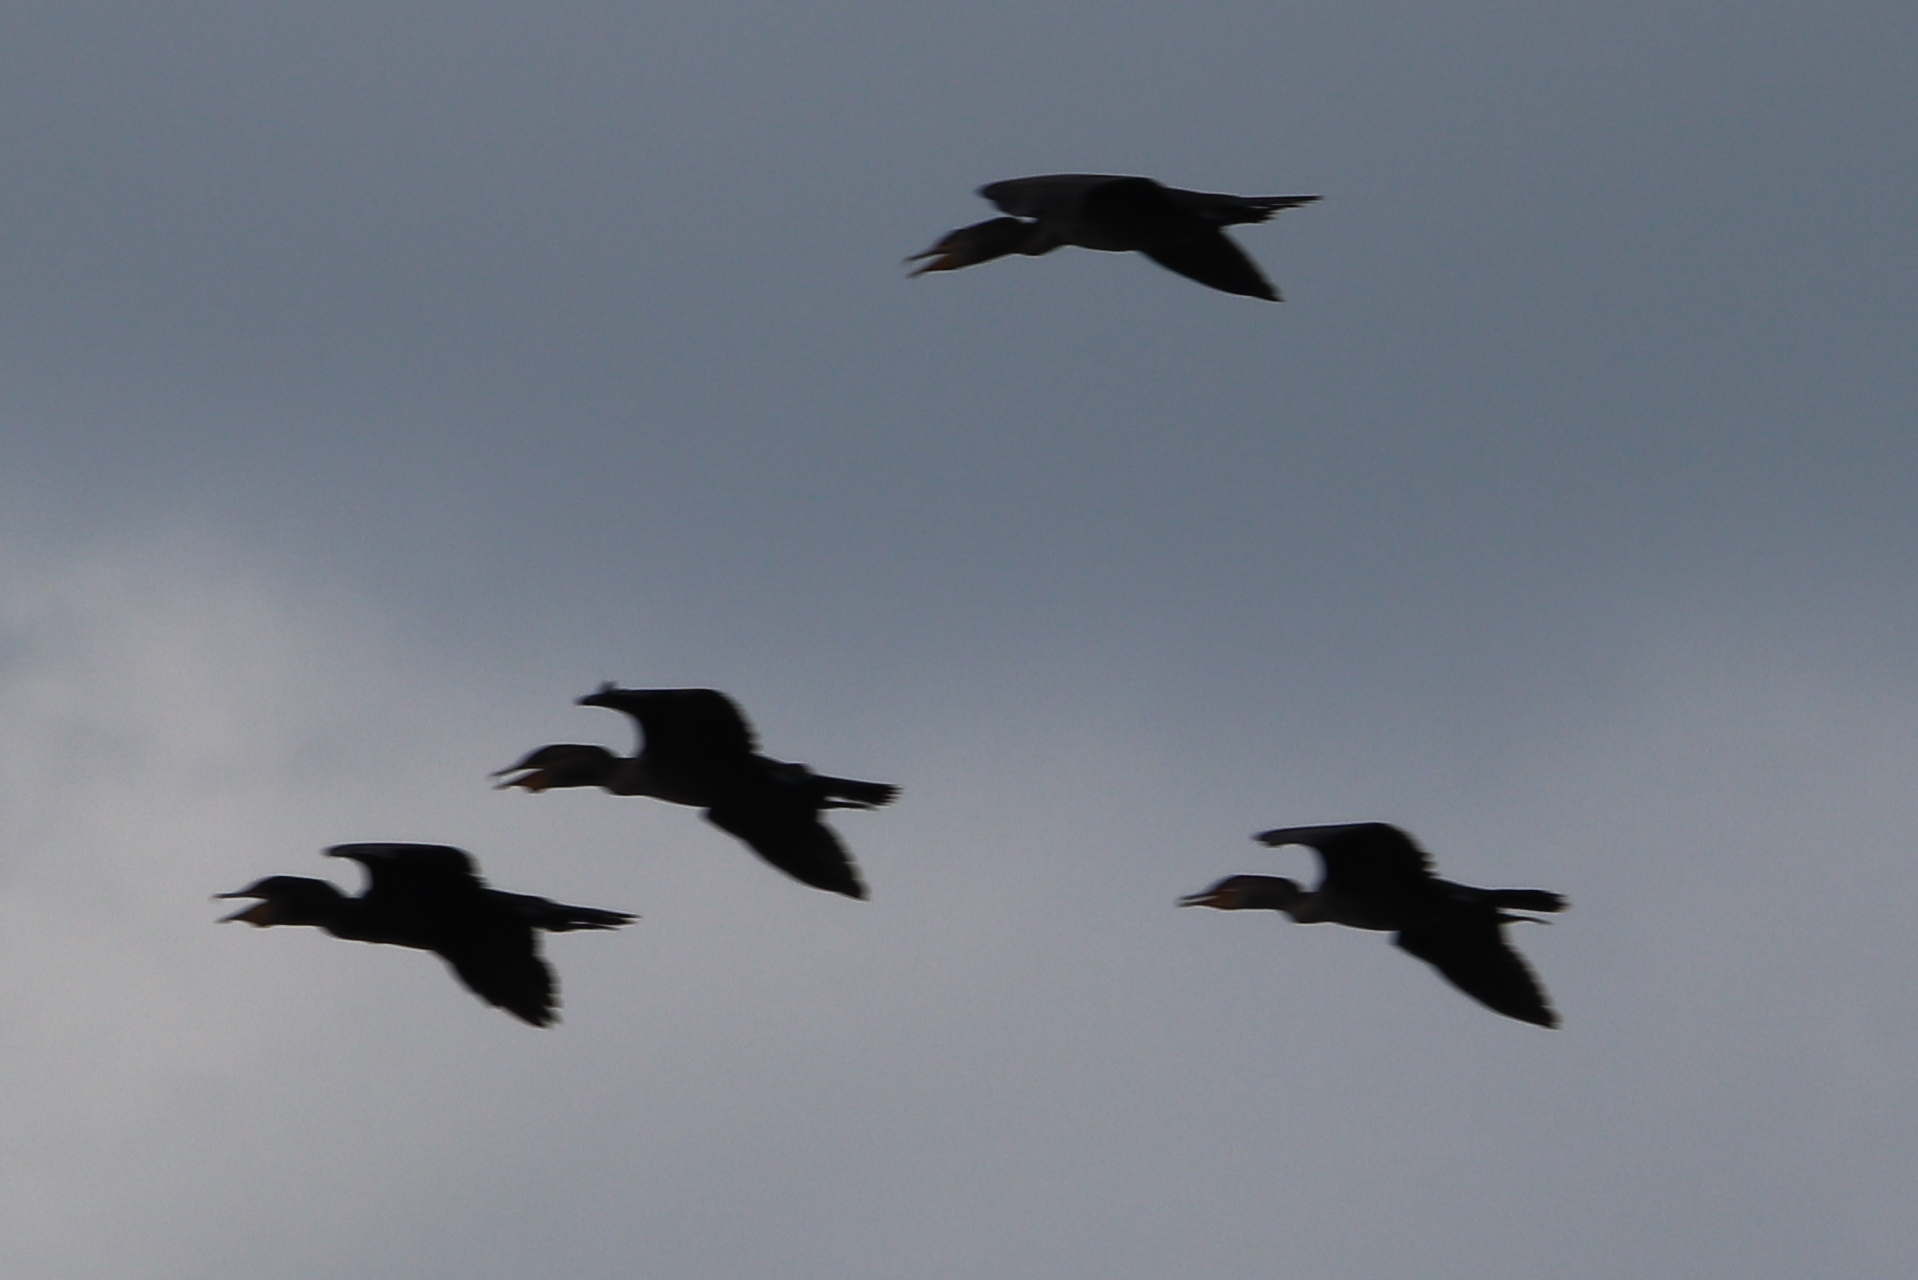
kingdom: Animalia
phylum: Chordata
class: Aves
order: Suliformes
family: Phalacrocoracidae
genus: Phalacrocorax
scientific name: Phalacrocorax auritus
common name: Double-crested cormorant
